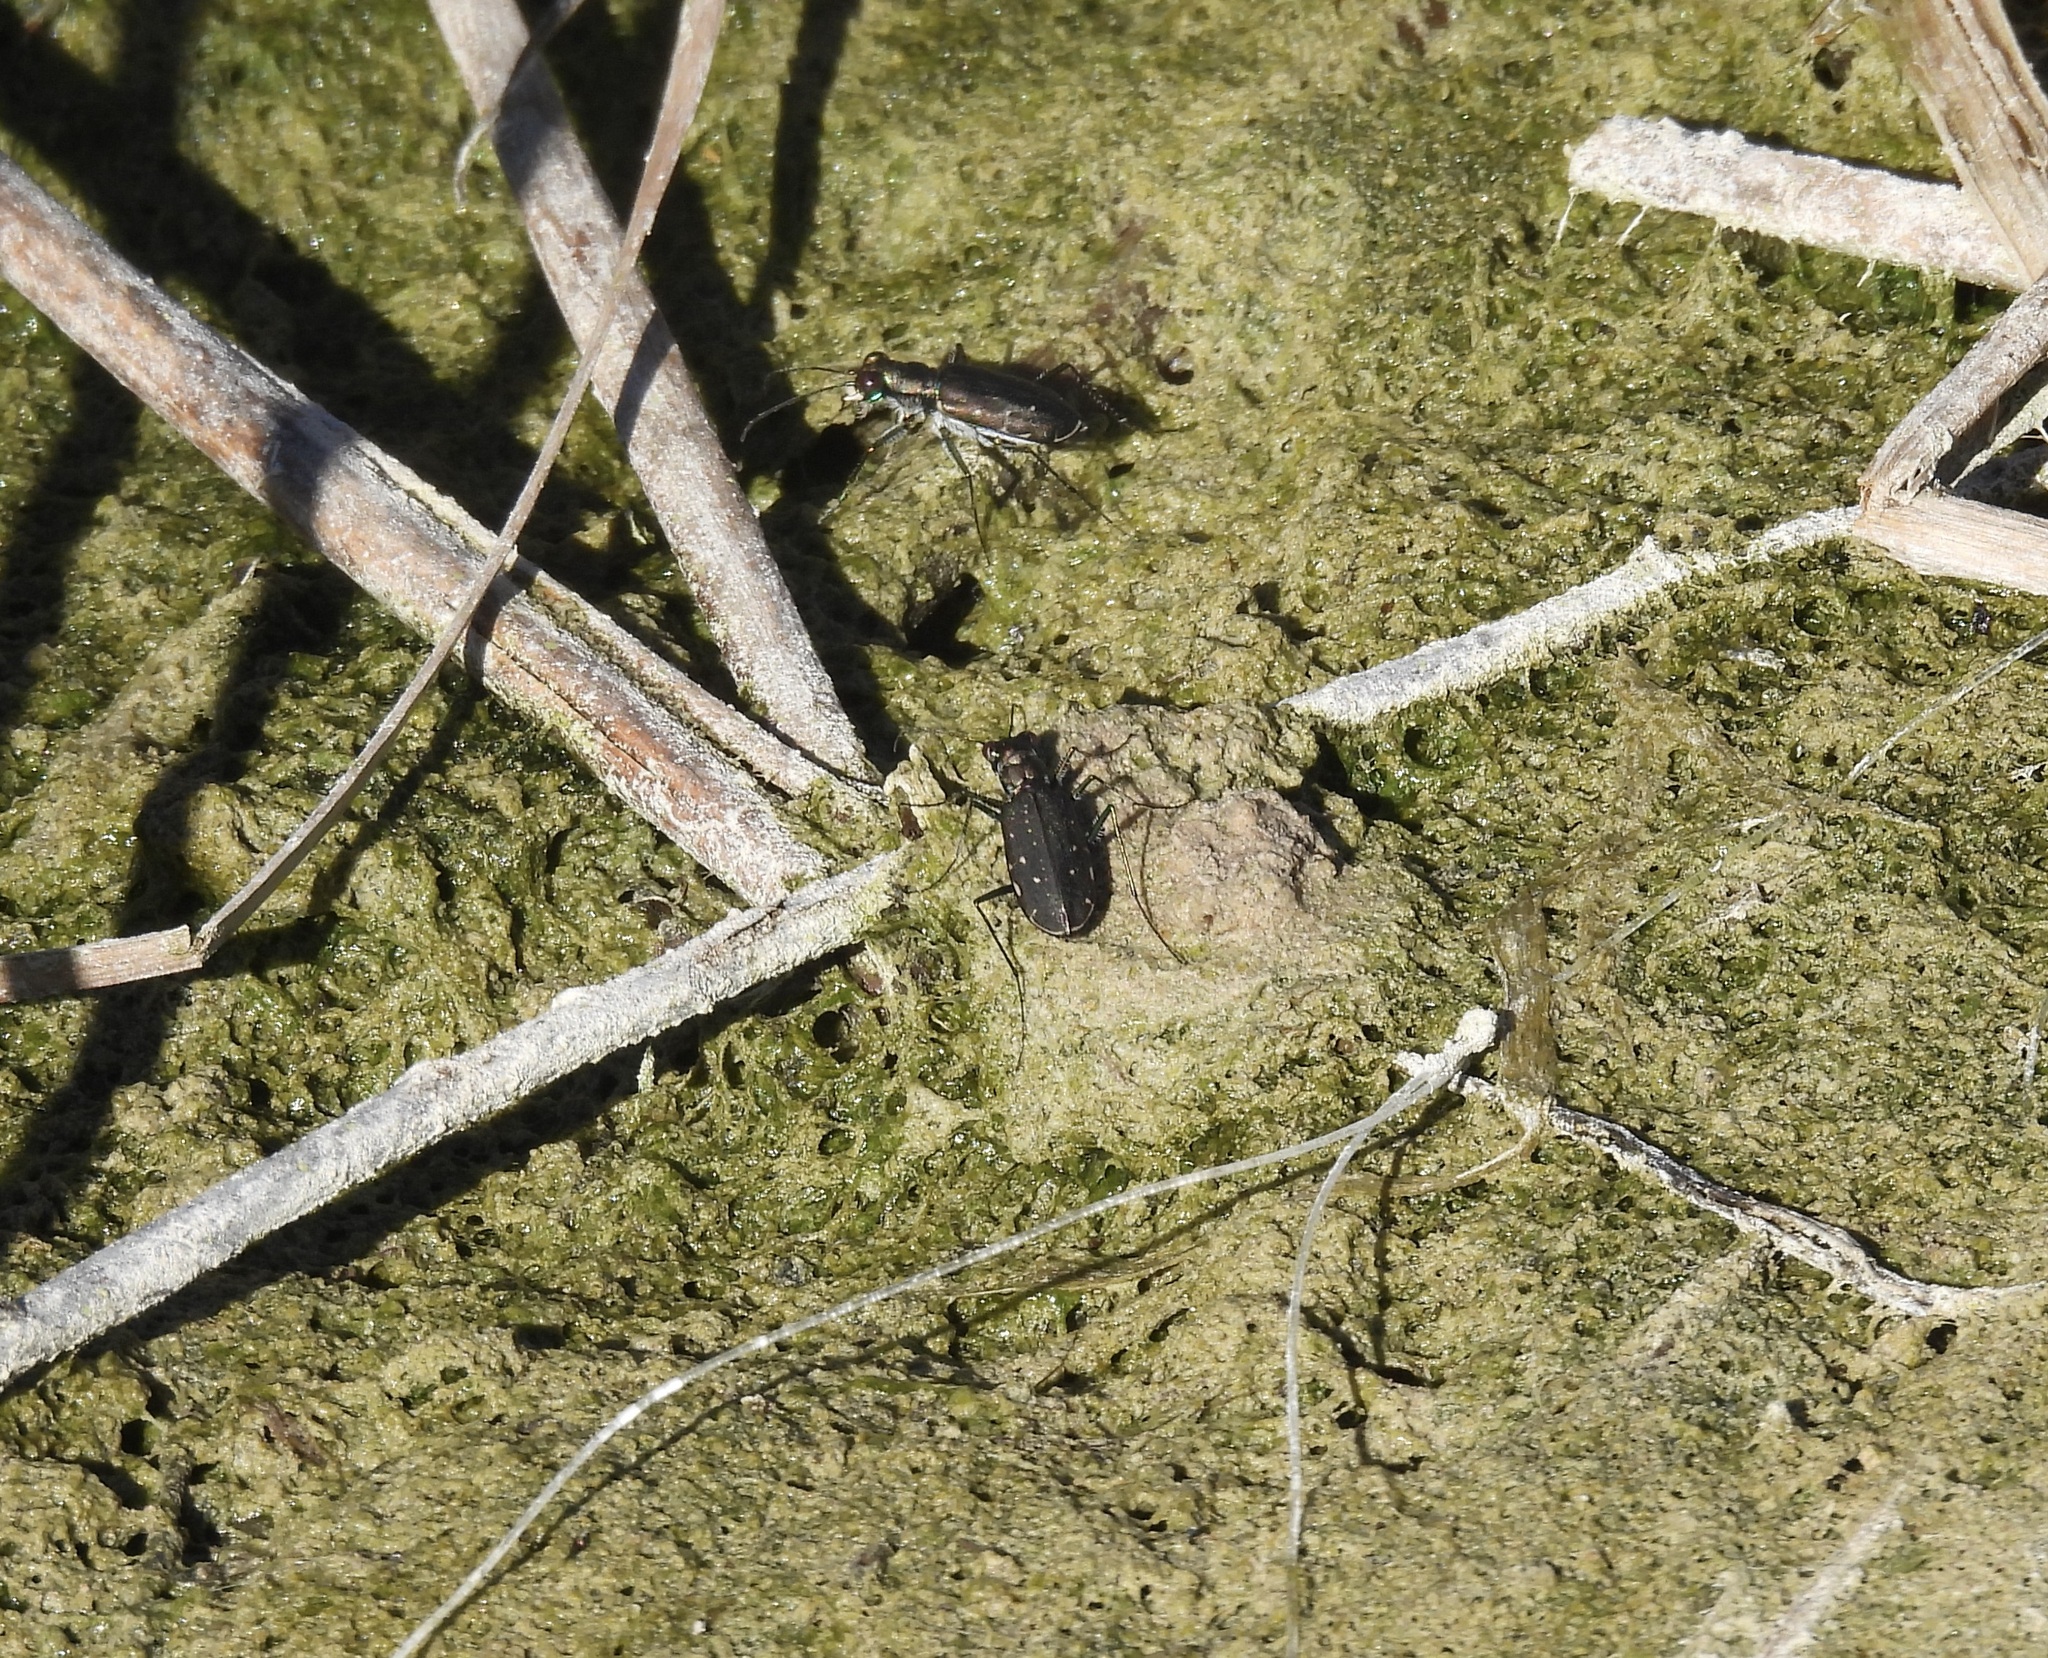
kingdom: Animalia
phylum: Arthropoda
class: Insecta
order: Coleoptera
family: Carabidae
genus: Cicindela
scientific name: Cicindela punctulata
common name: Punctured tiger beetle
